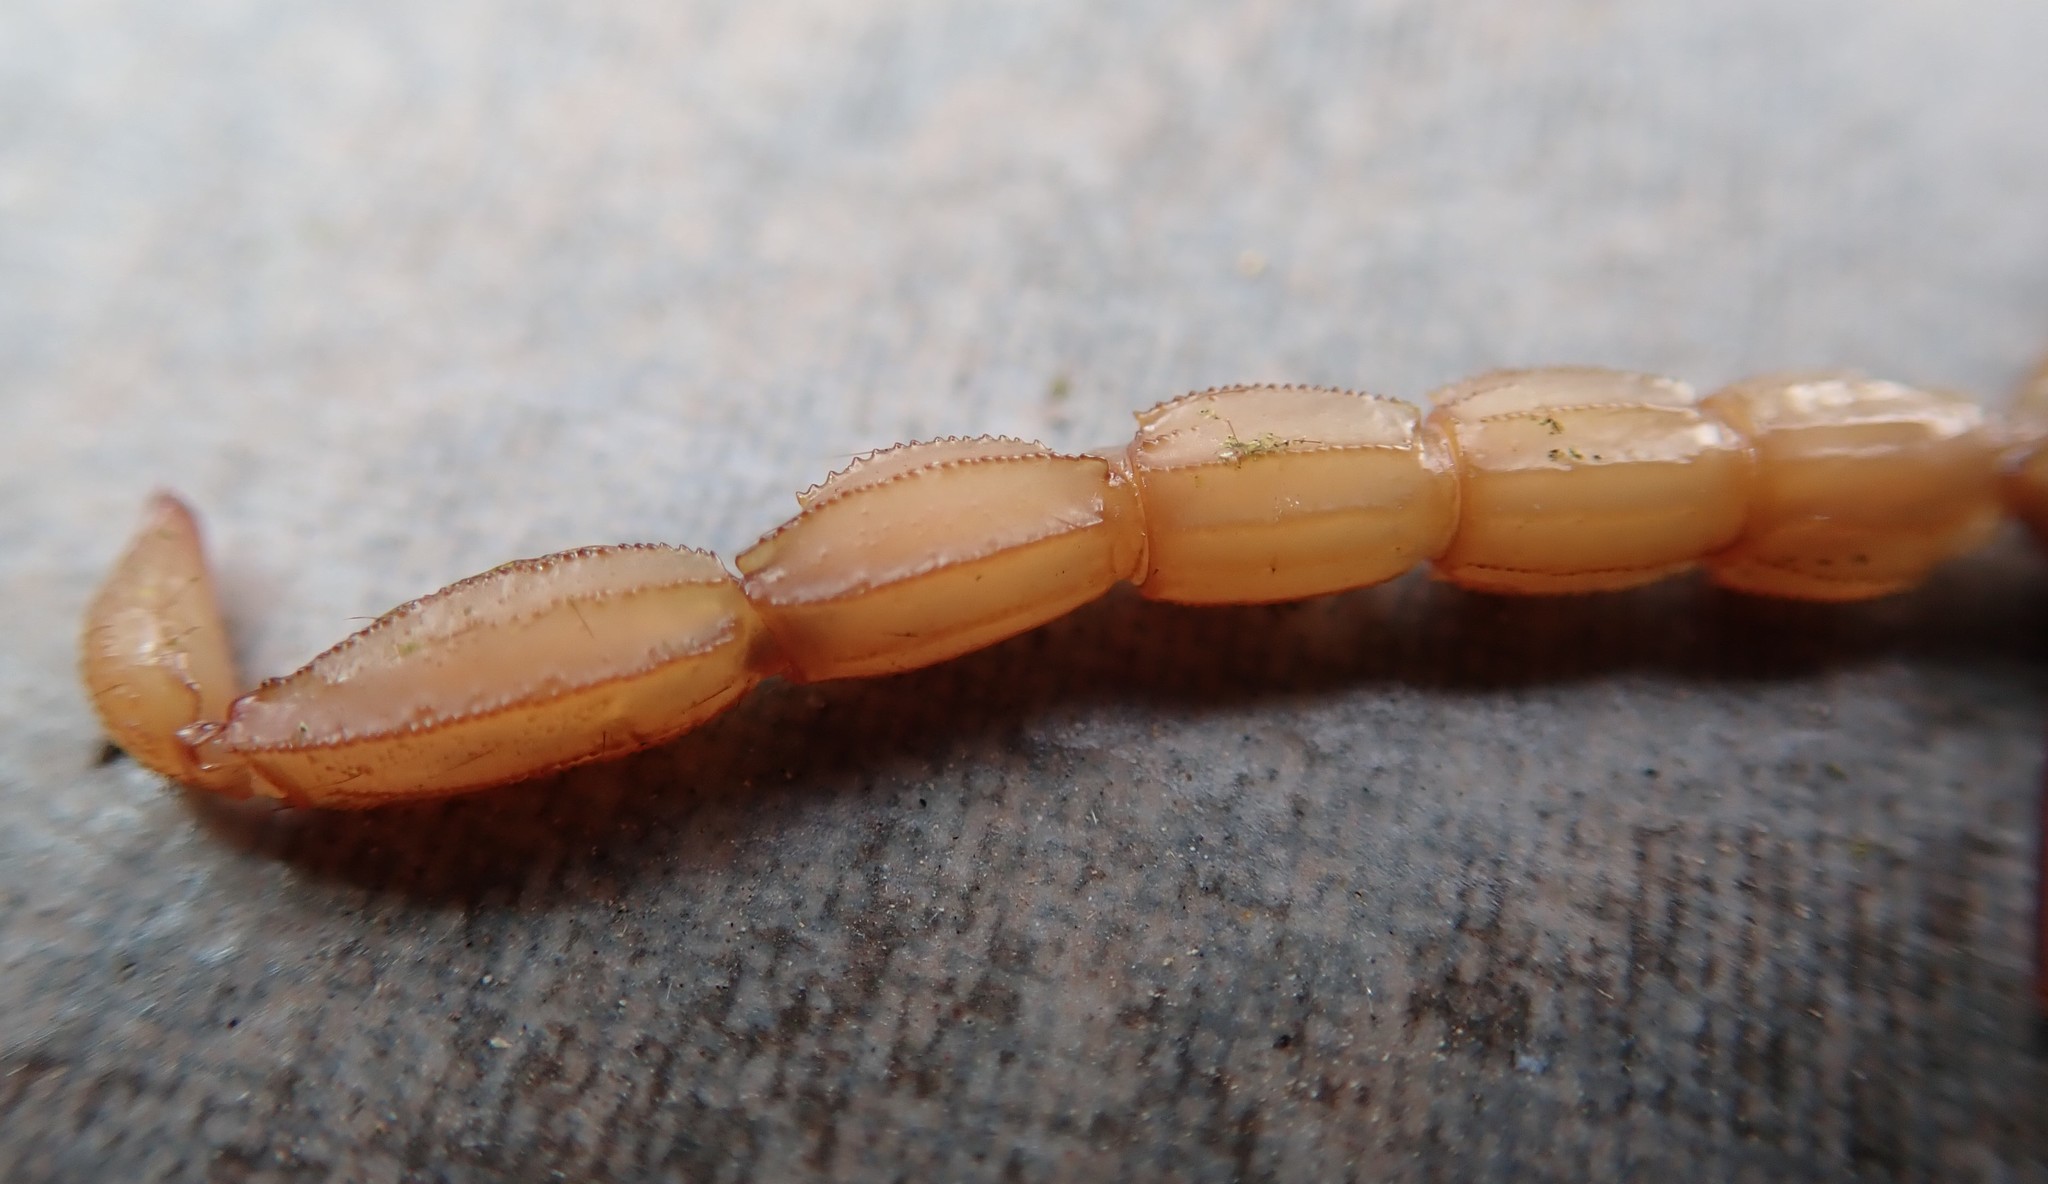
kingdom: Animalia
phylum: Arthropoda
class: Arachnida
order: Scorpiones
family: Vaejovidae
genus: Paravaejovis
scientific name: Paravaejovis puritanus
